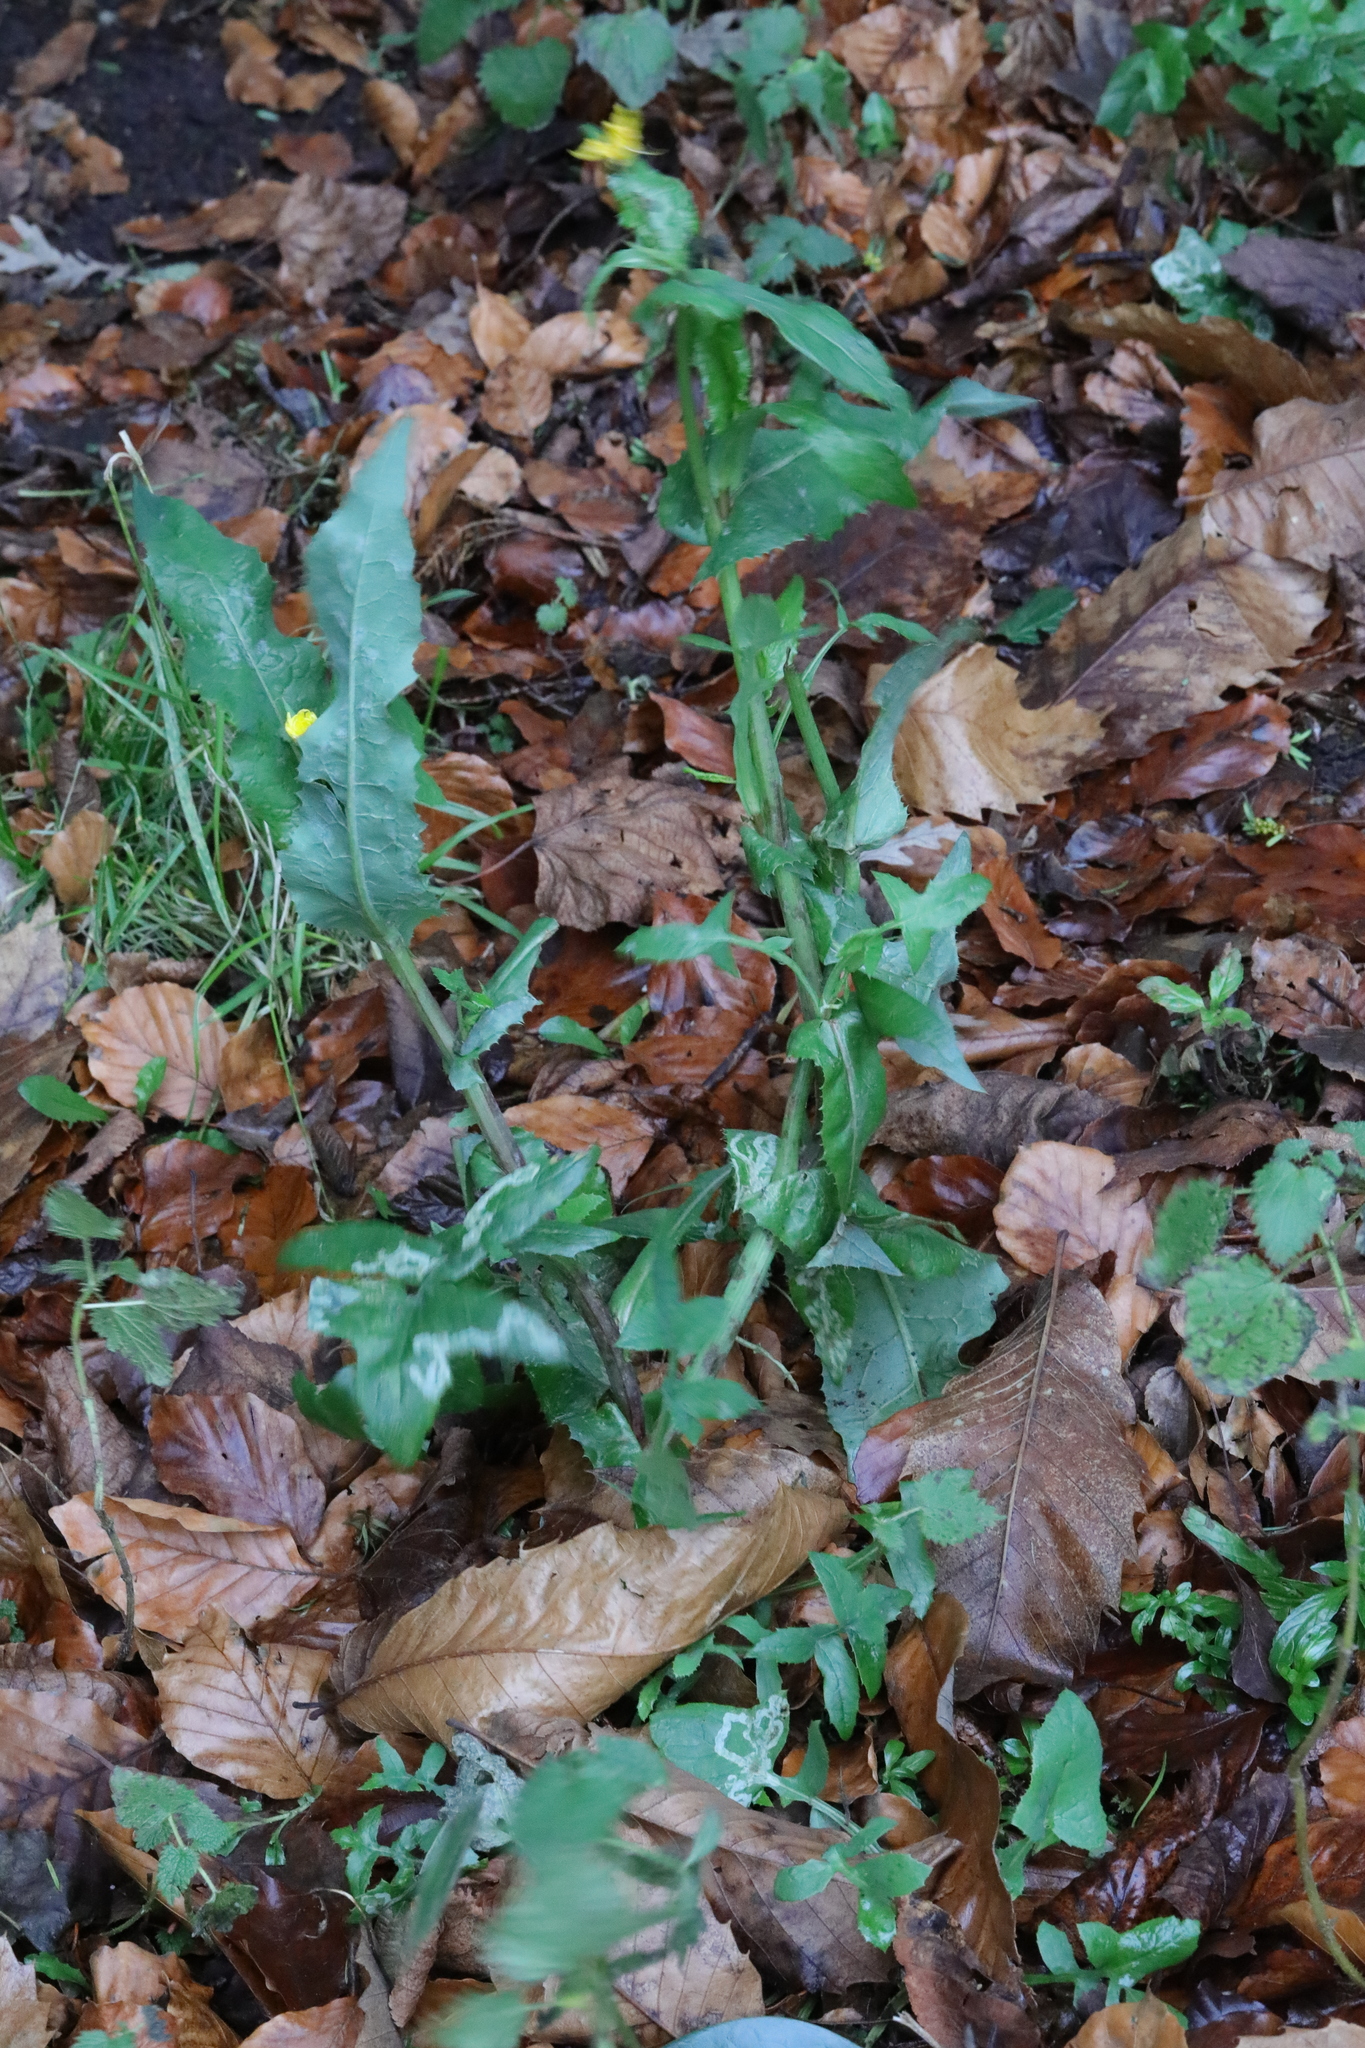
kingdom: Plantae
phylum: Tracheophyta
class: Magnoliopsida
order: Asterales
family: Asteraceae
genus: Sonchus
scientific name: Sonchus oleraceus
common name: Common sowthistle
